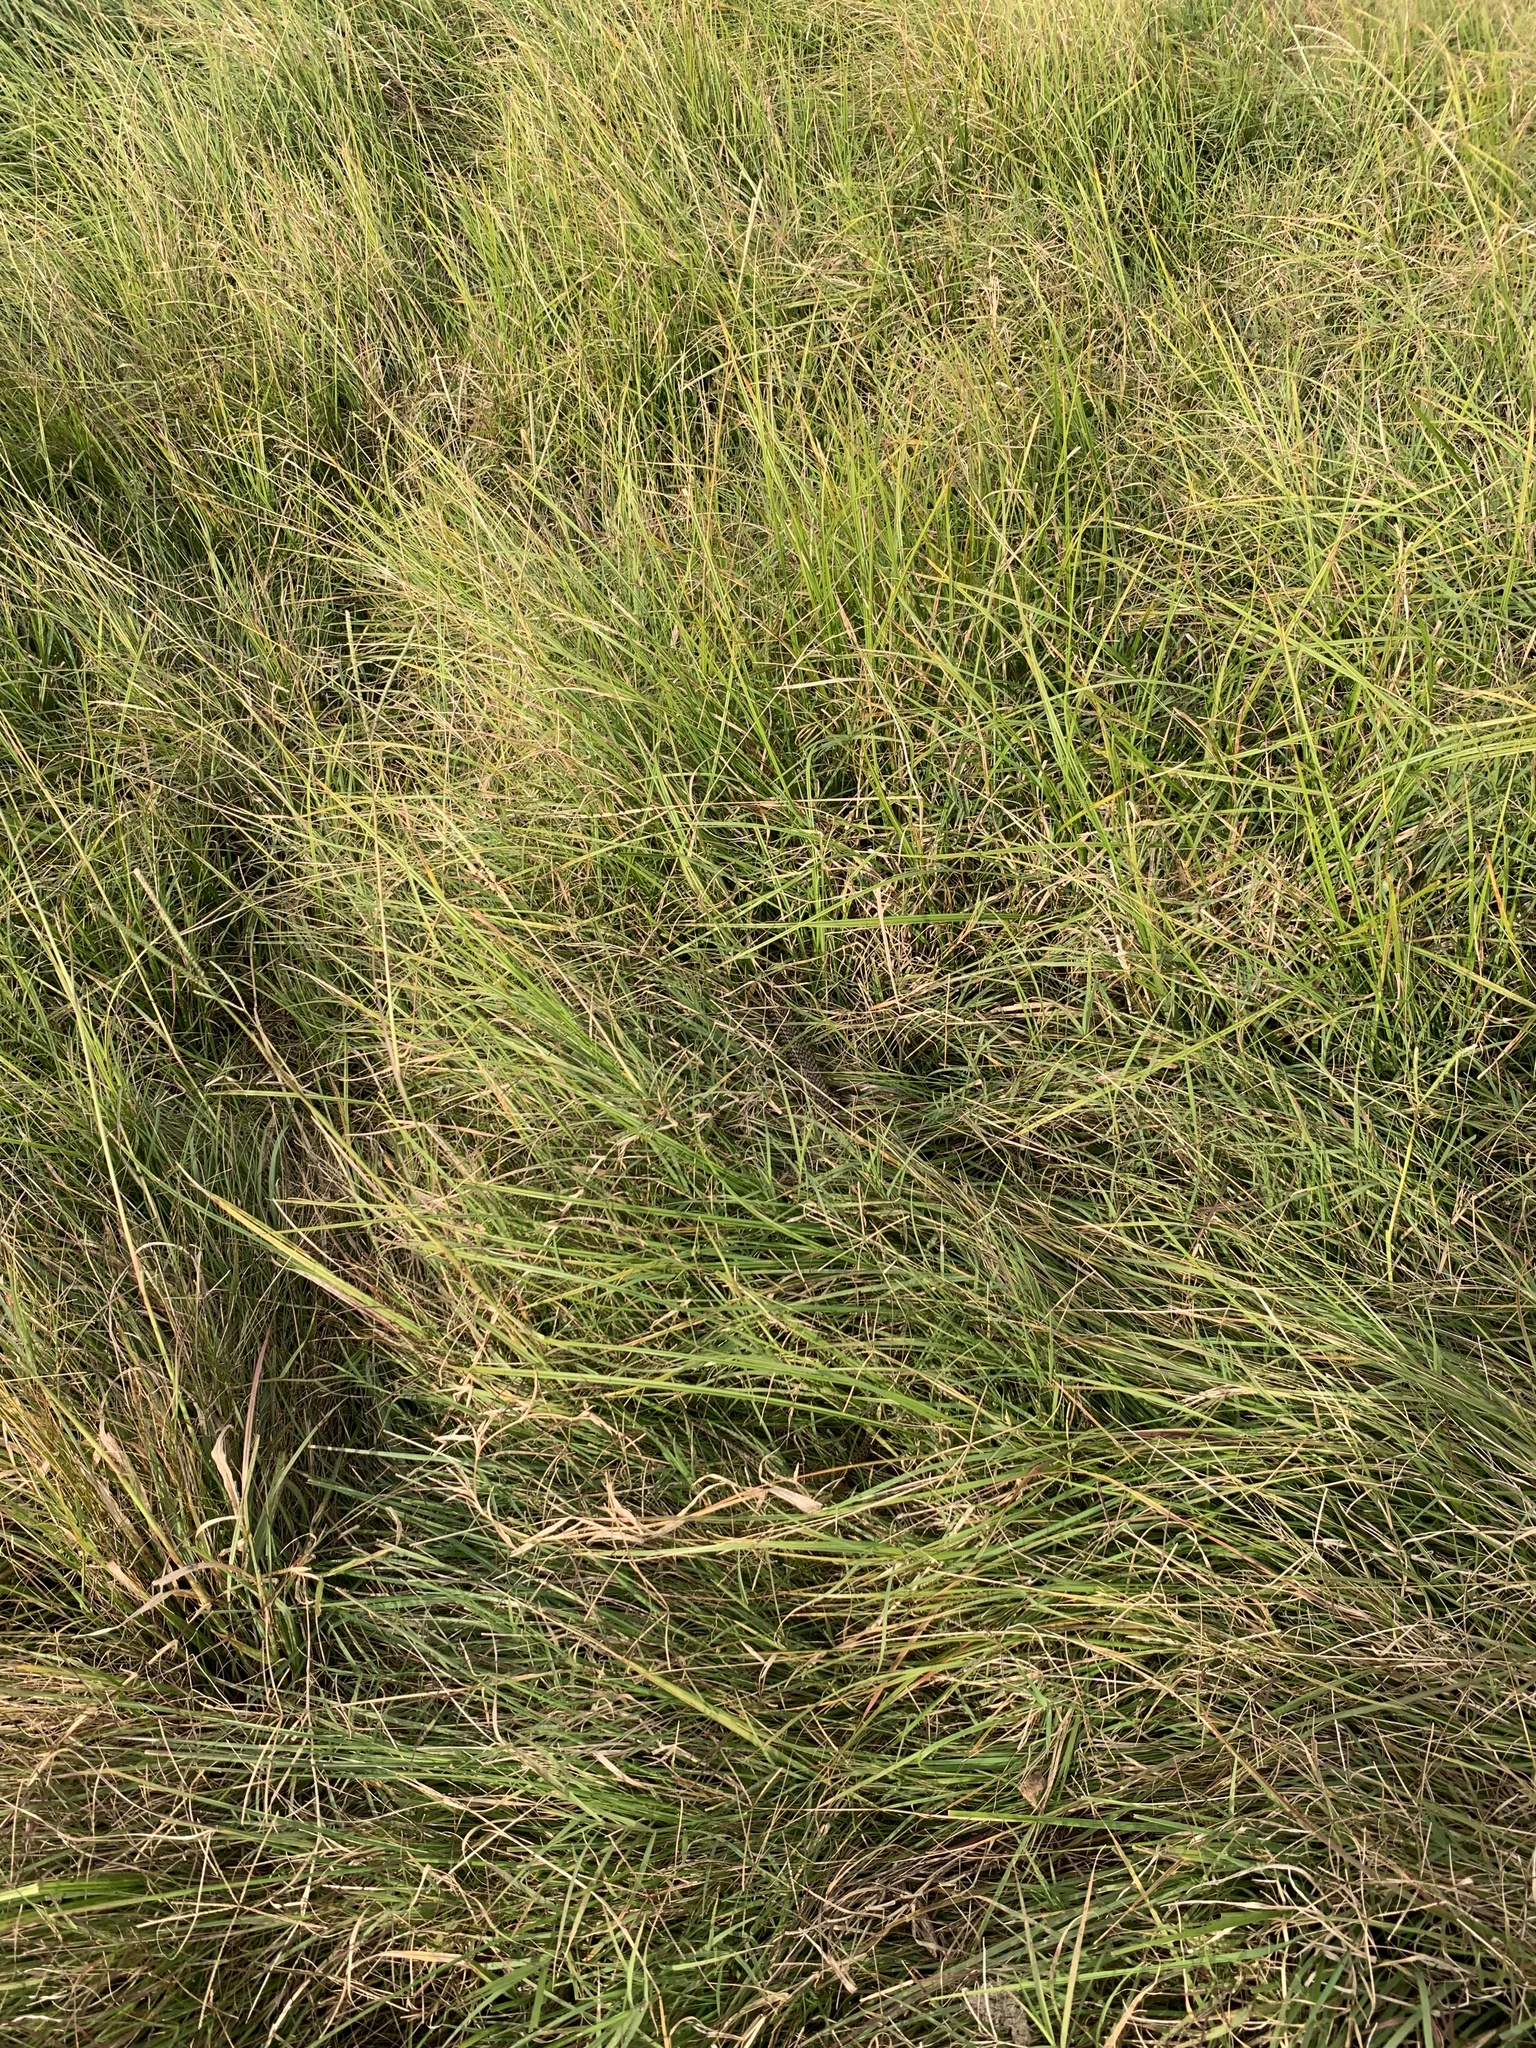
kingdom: Animalia
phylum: Chordata
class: Squamata
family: Colubridae
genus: Philodryas
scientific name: Philodryas patagoniensis
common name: Patagonia green racer
